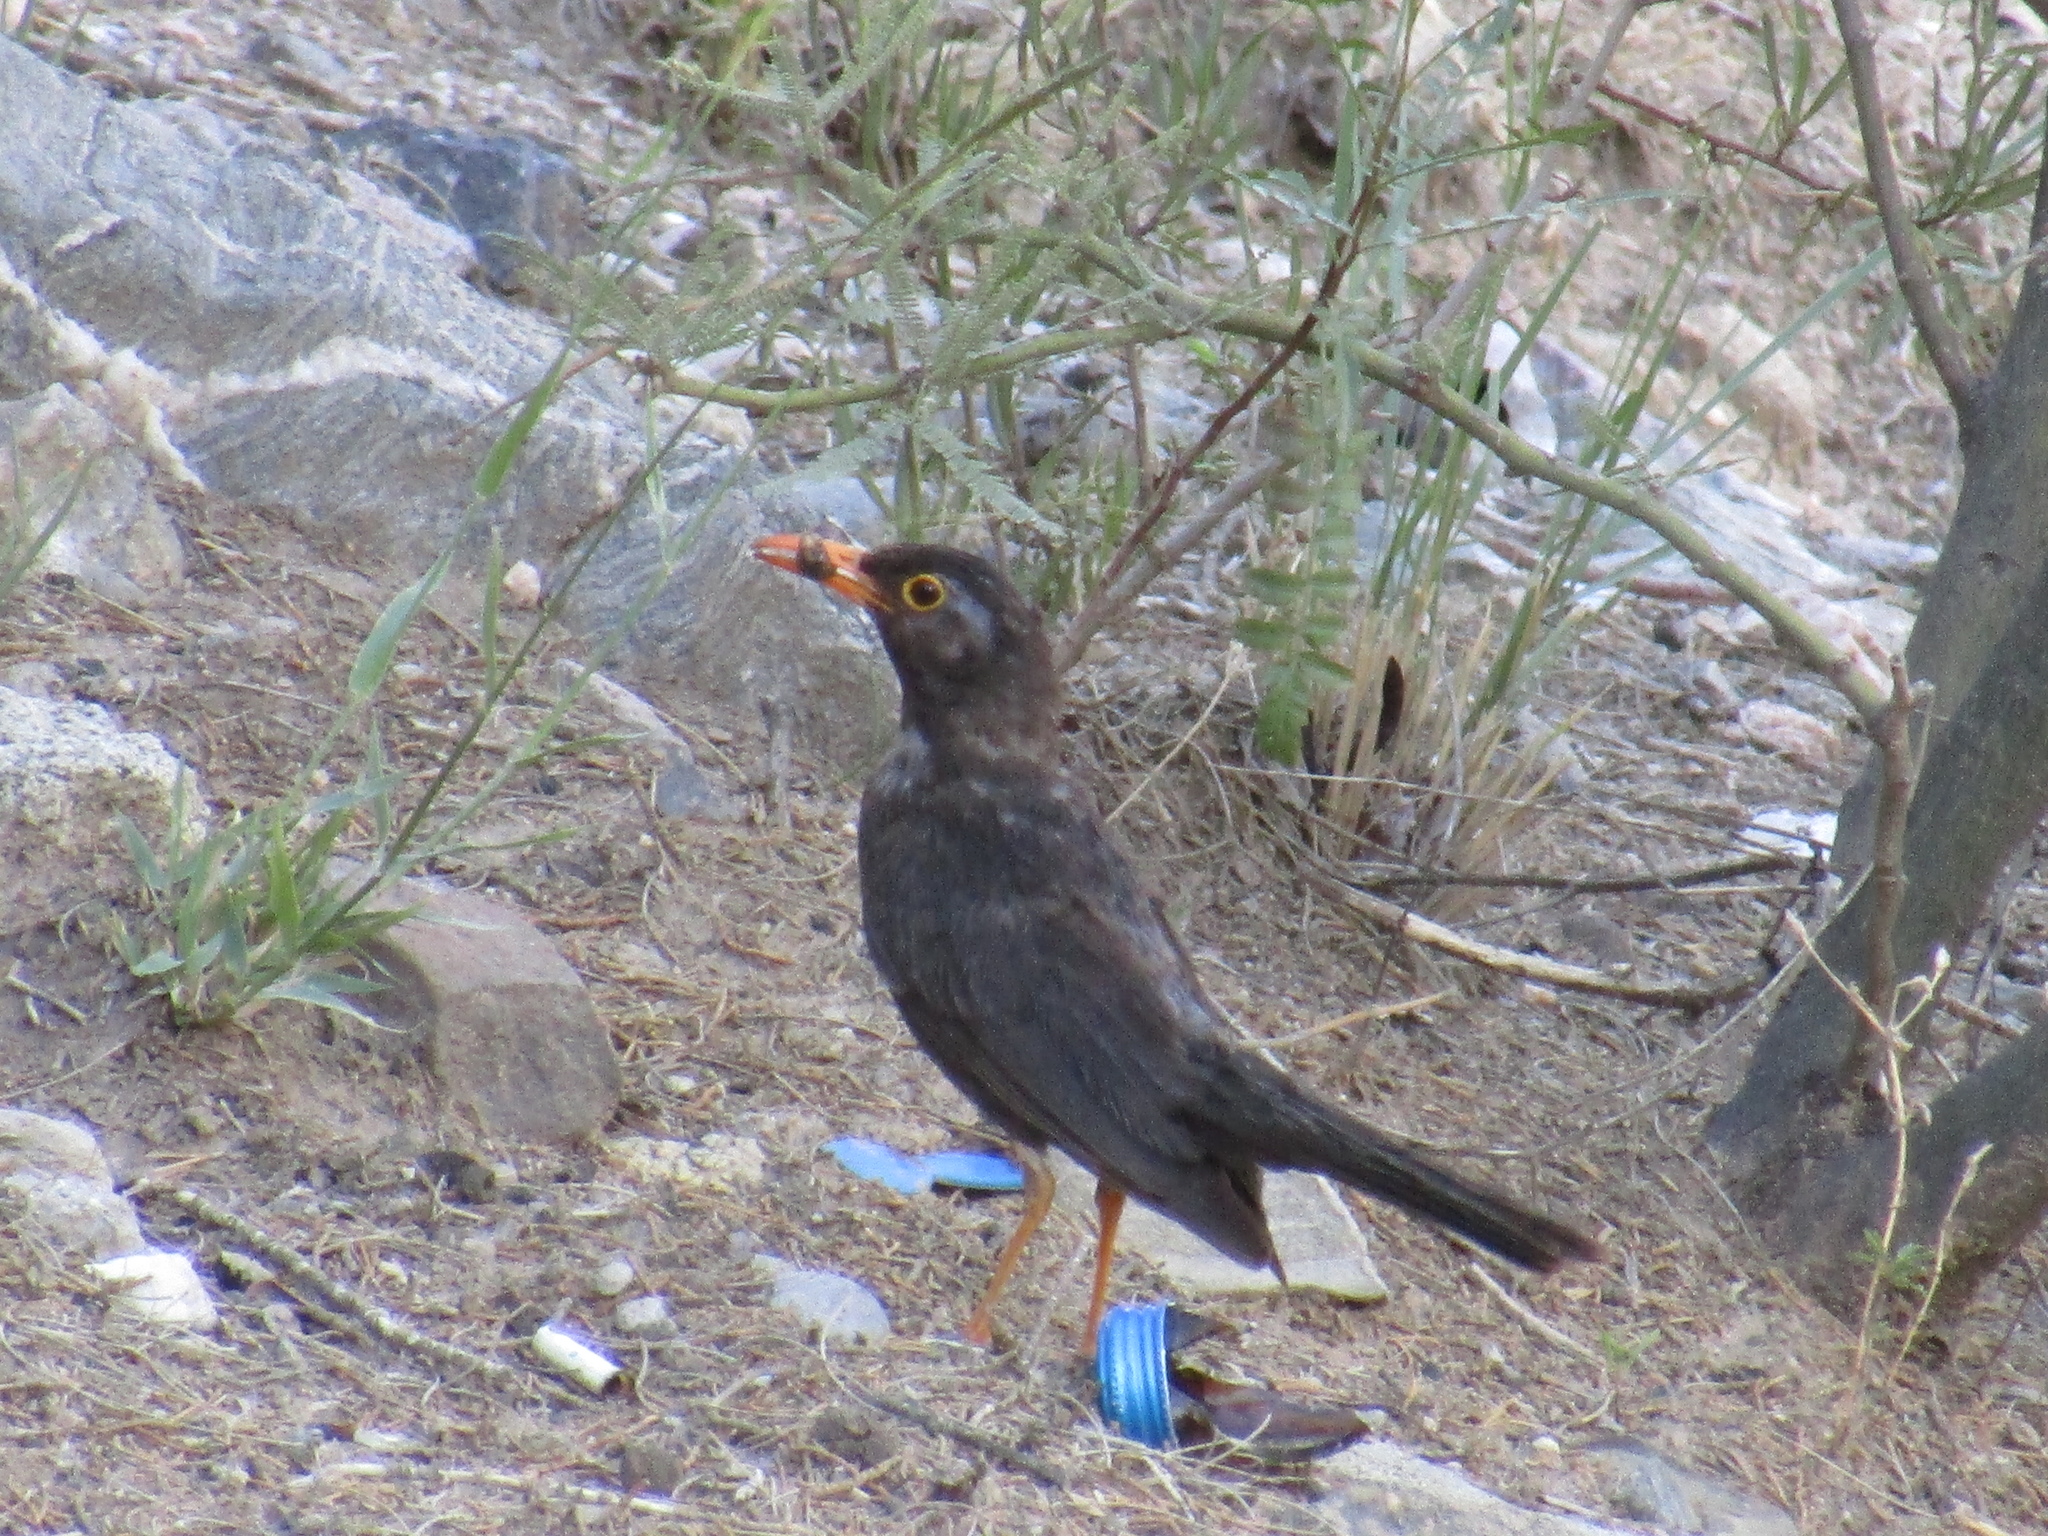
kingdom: Animalia
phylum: Chordata
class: Aves
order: Passeriformes
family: Turdidae
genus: Turdus
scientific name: Turdus chiguanco
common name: Chiguanco thrush
